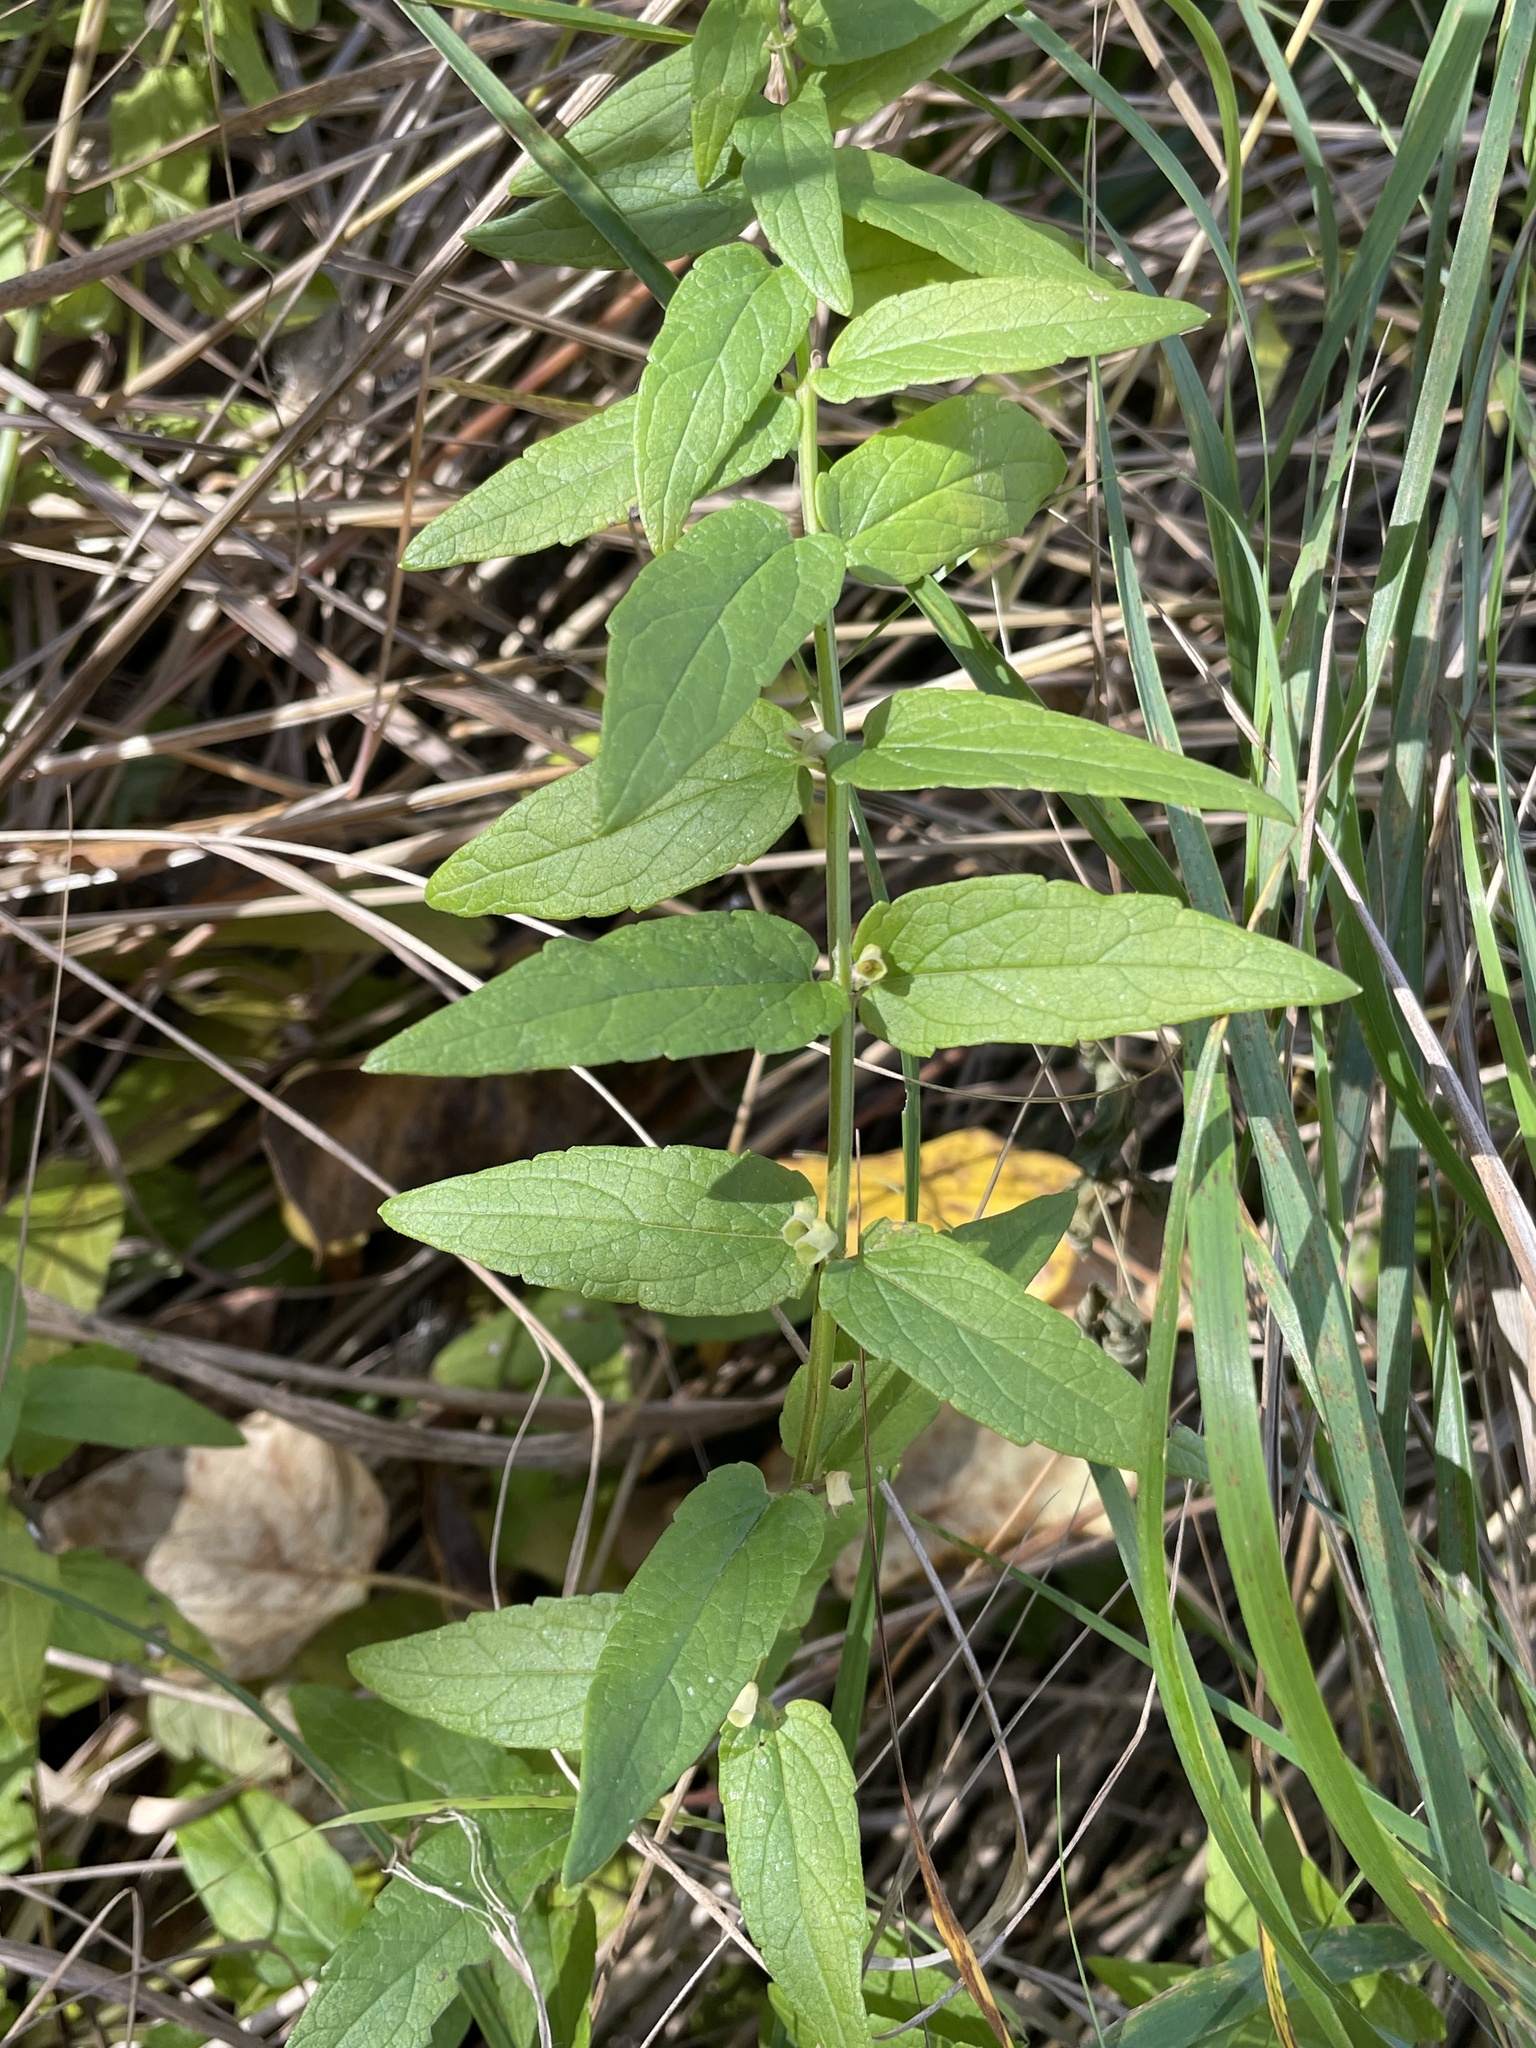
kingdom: Plantae
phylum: Tracheophyta
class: Magnoliopsida
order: Lamiales
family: Lamiaceae
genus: Scutellaria
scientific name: Scutellaria galericulata
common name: Skullcap
